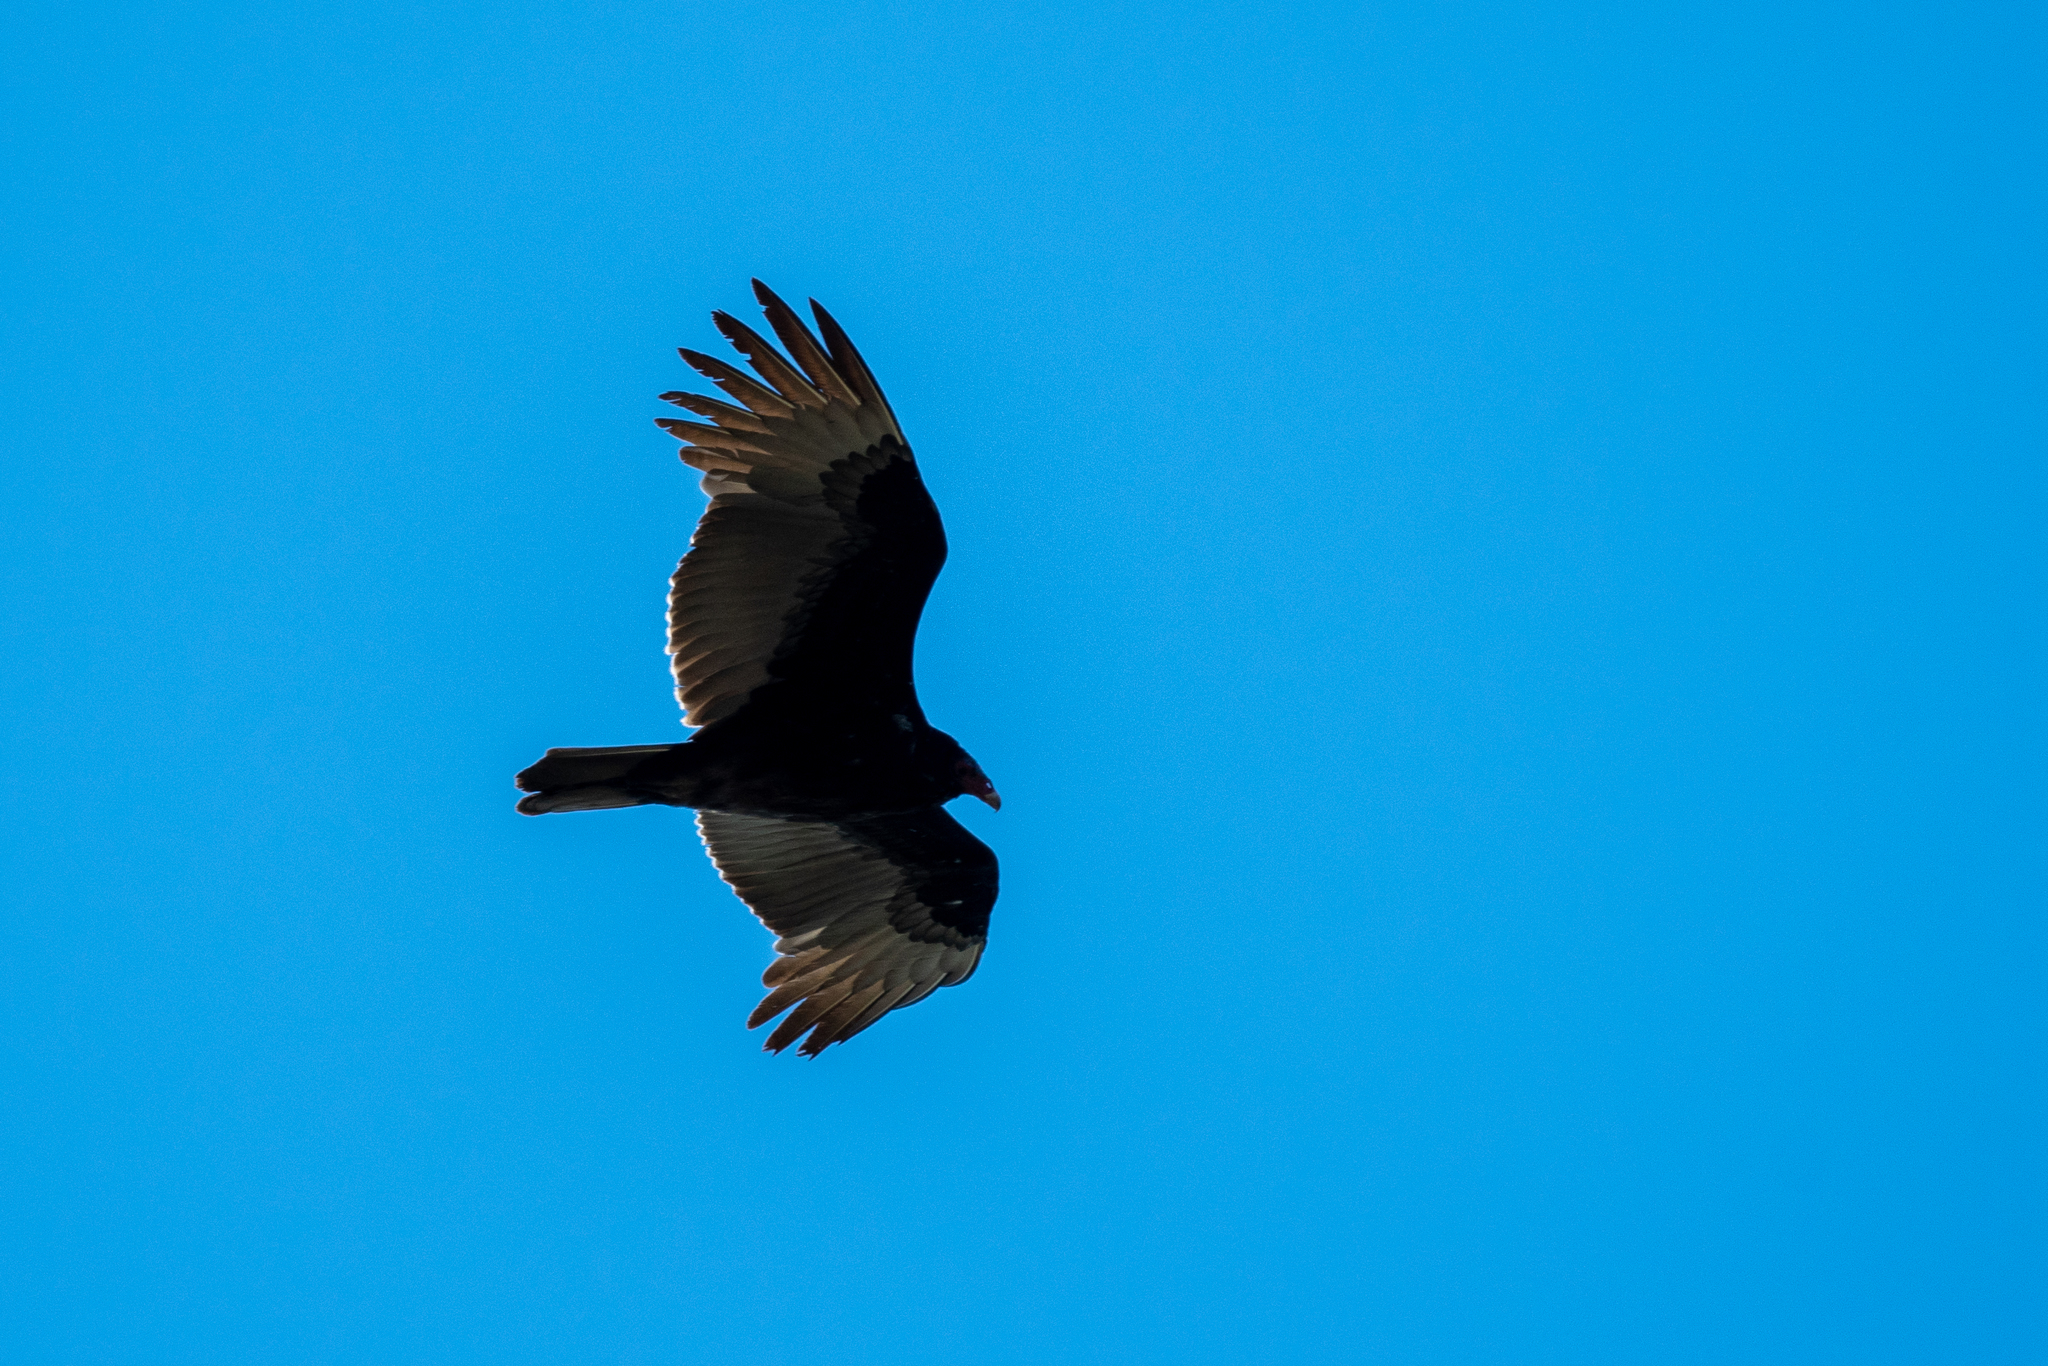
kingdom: Animalia
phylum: Chordata
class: Aves
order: Accipitriformes
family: Cathartidae
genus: Cathartes
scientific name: Cathartes aura
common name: Turkey vulture
